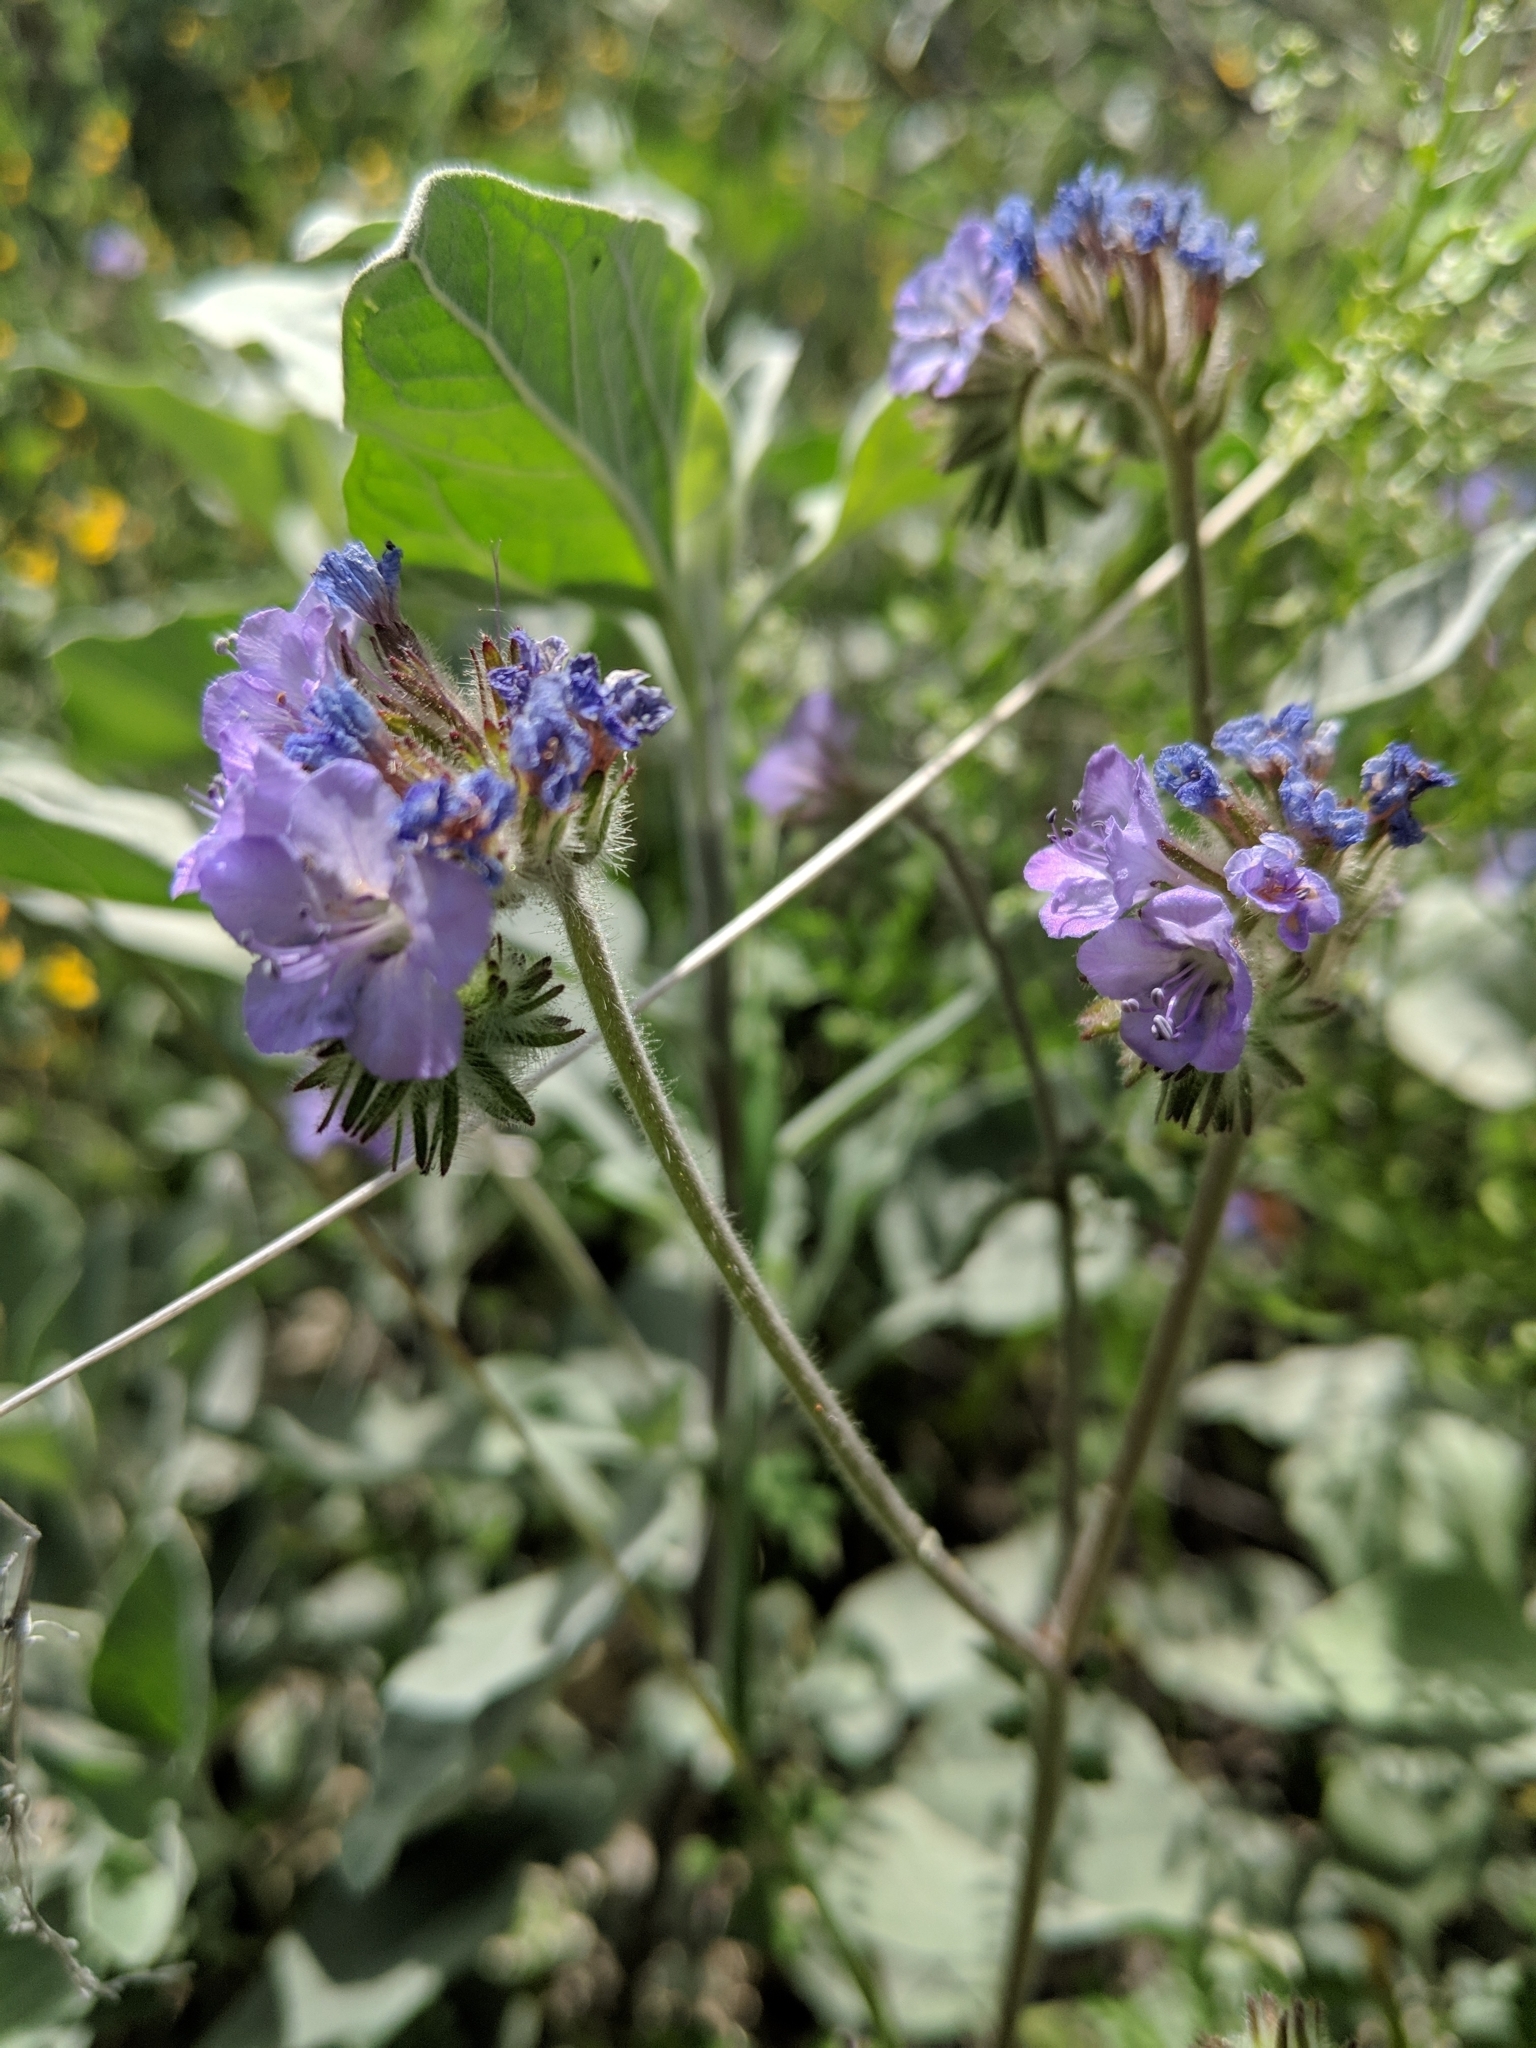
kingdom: Plantae
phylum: Tracheophyta
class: Magnoliopsida
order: Boraginales
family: Hydrophyllaceae
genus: Phacelia
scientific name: Phacelia distans
